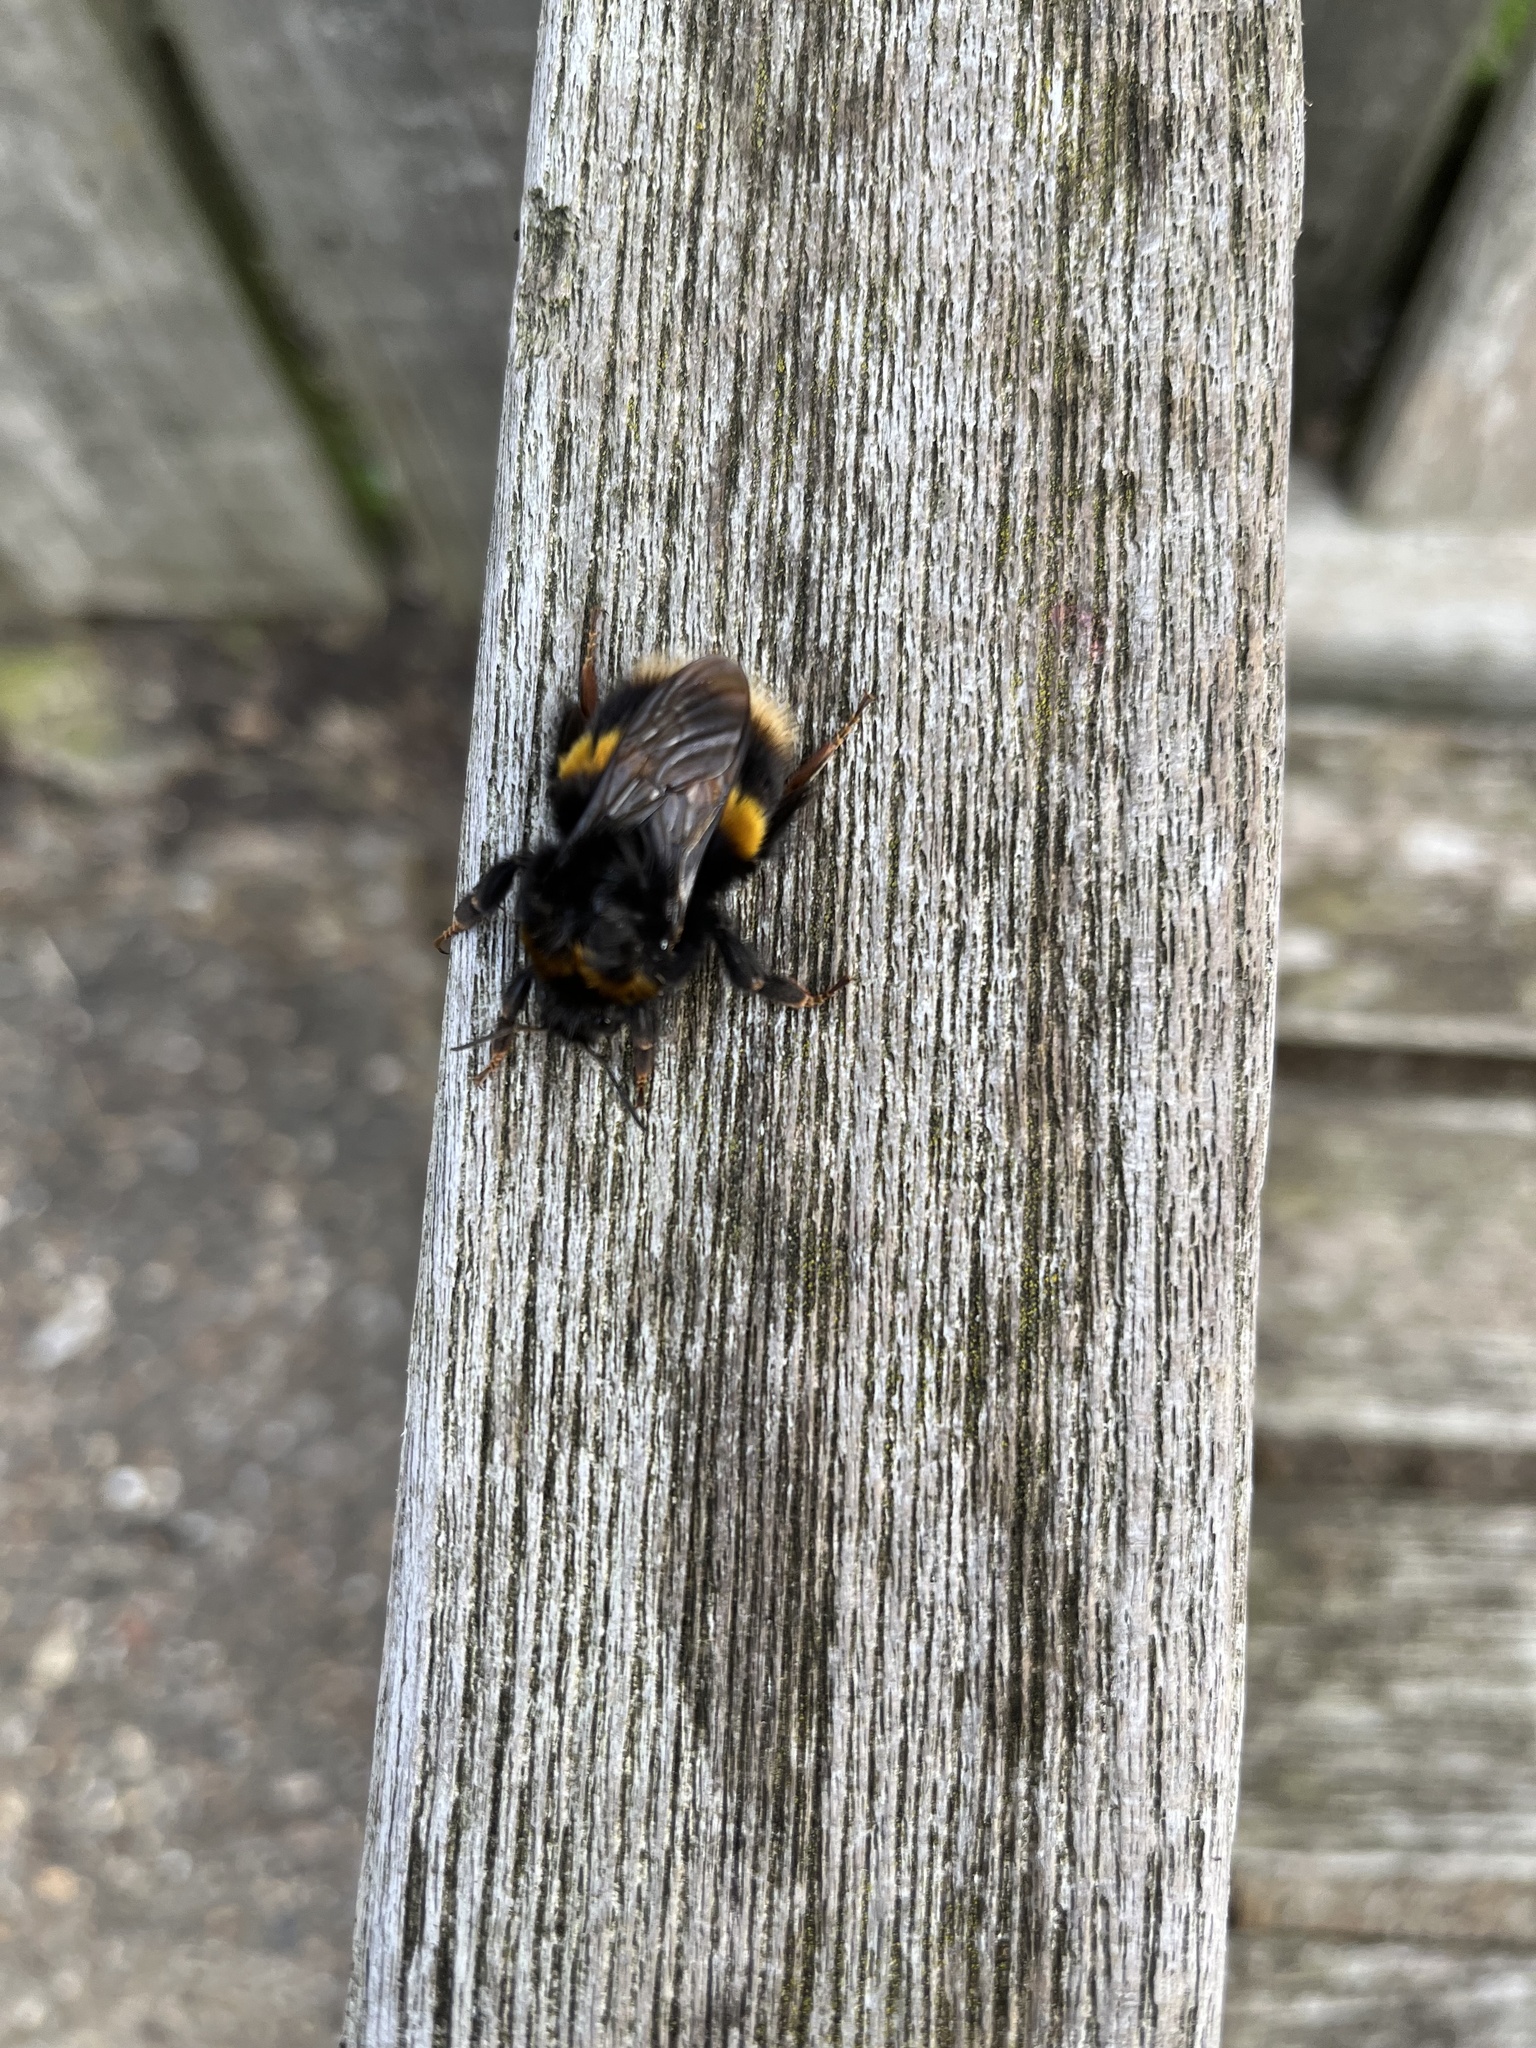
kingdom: Animalia
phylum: Arthropoda
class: Insecta
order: Hymenoptera
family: Apidae
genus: Bombus
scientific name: Bombus terrestris
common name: Buff-tailed bumblebee
